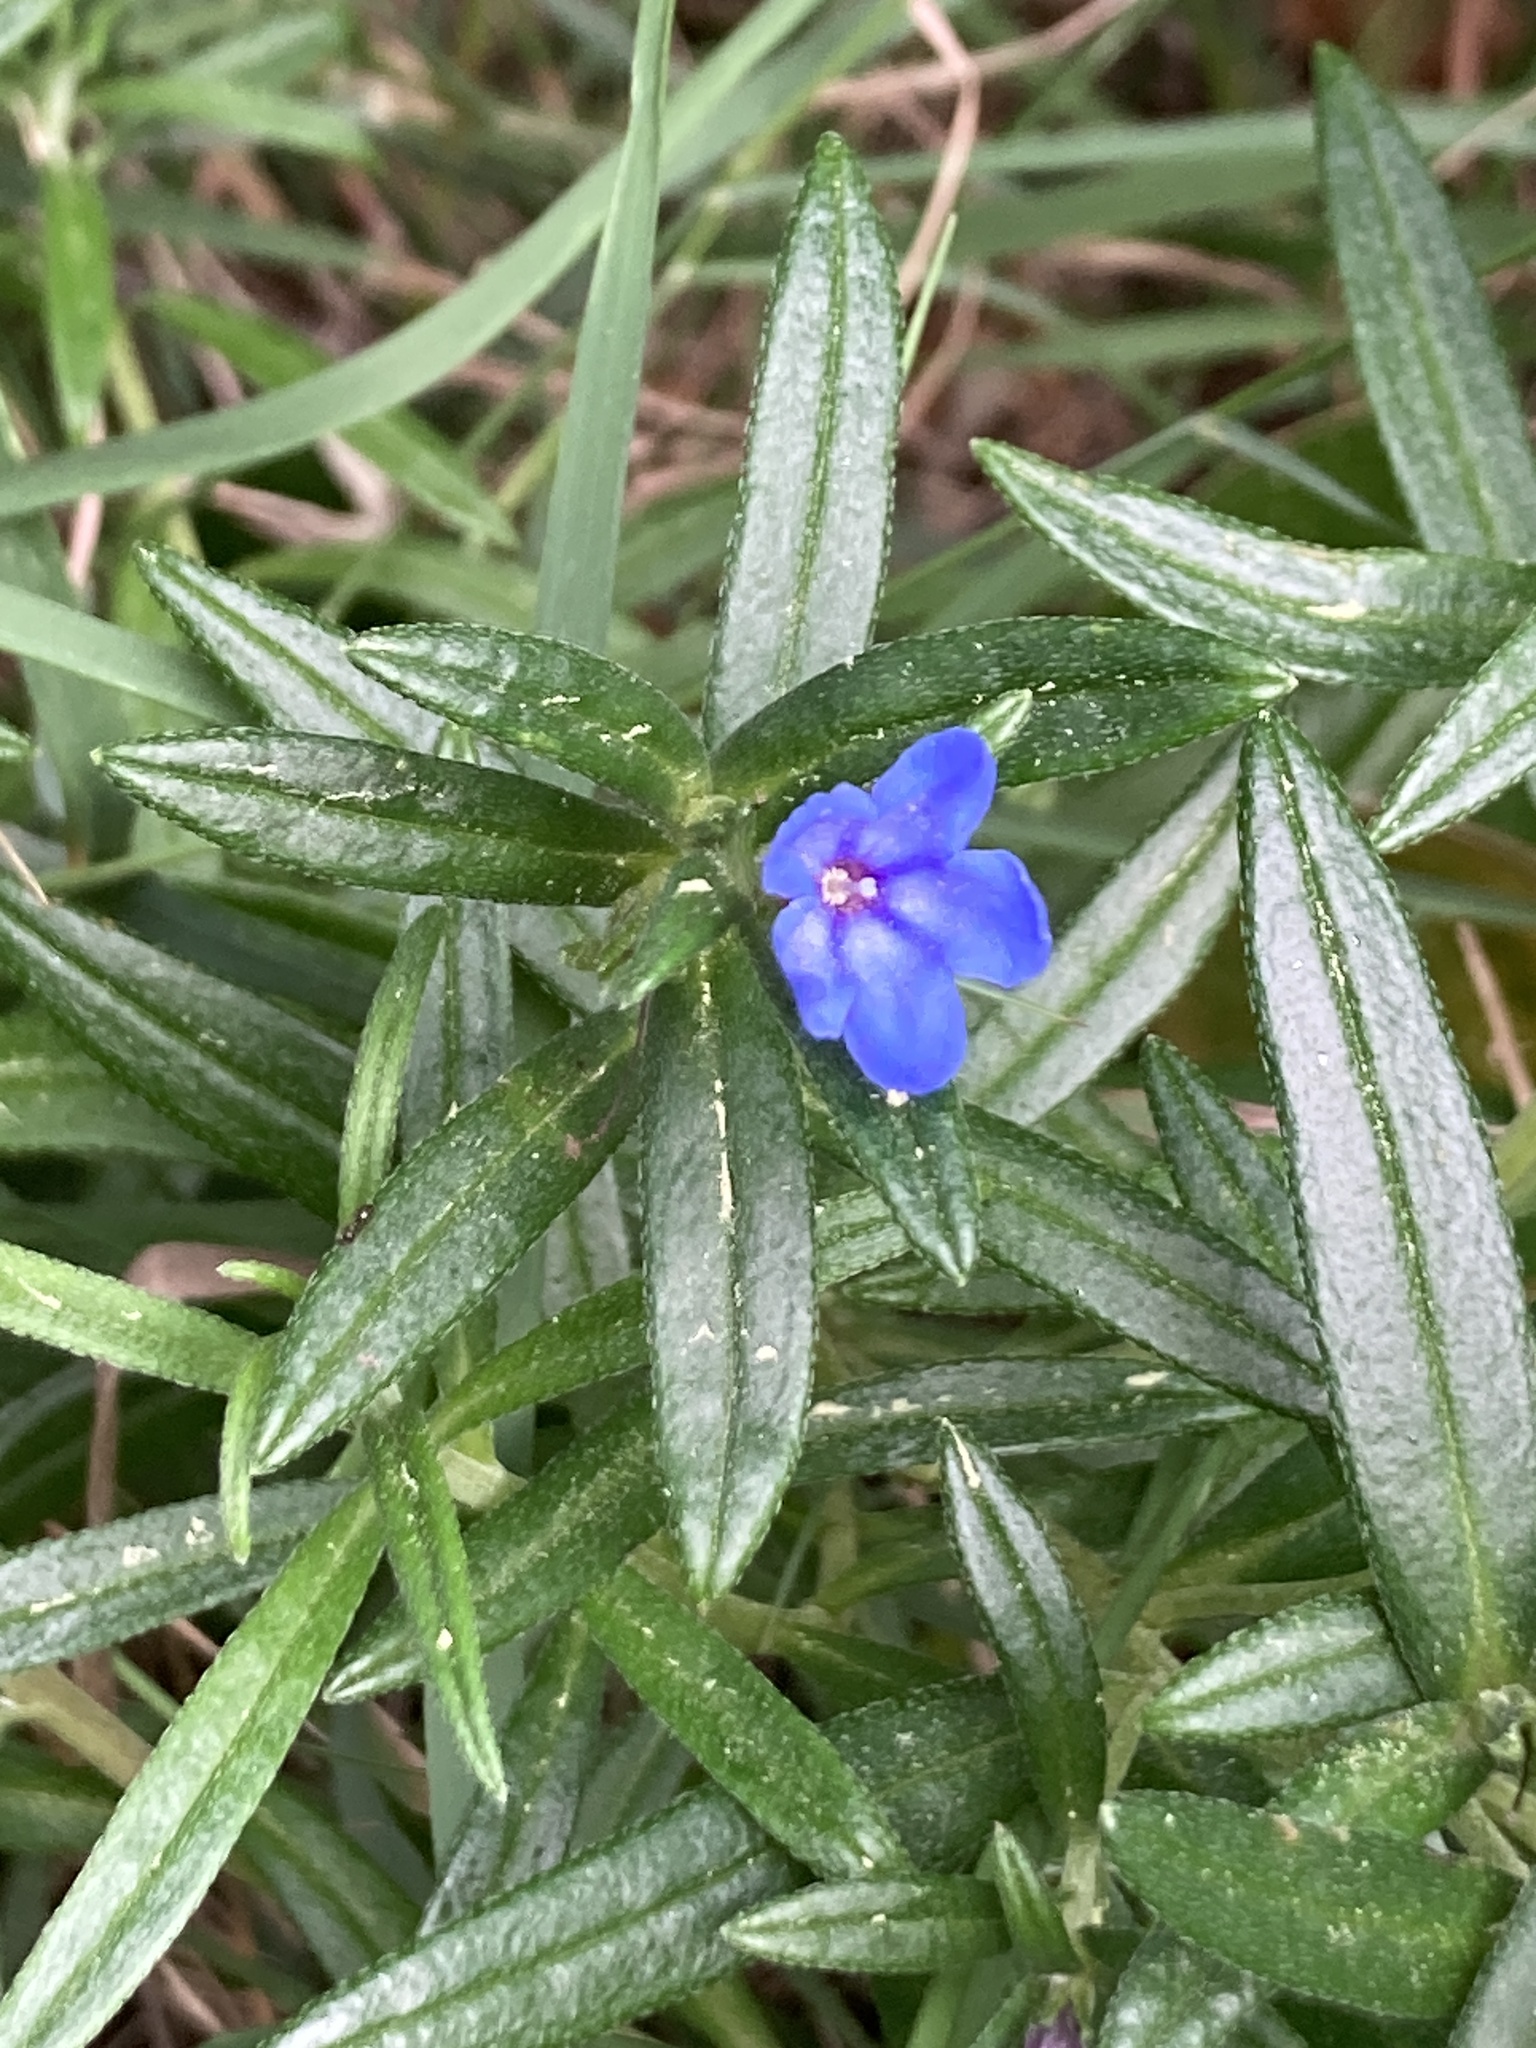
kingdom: Plantae
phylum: Tracheophyta
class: Magnoliopsida
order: Boraginales
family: Boraginaceae
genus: Aegonychon
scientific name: Aegonychon purpurocaeruleum
